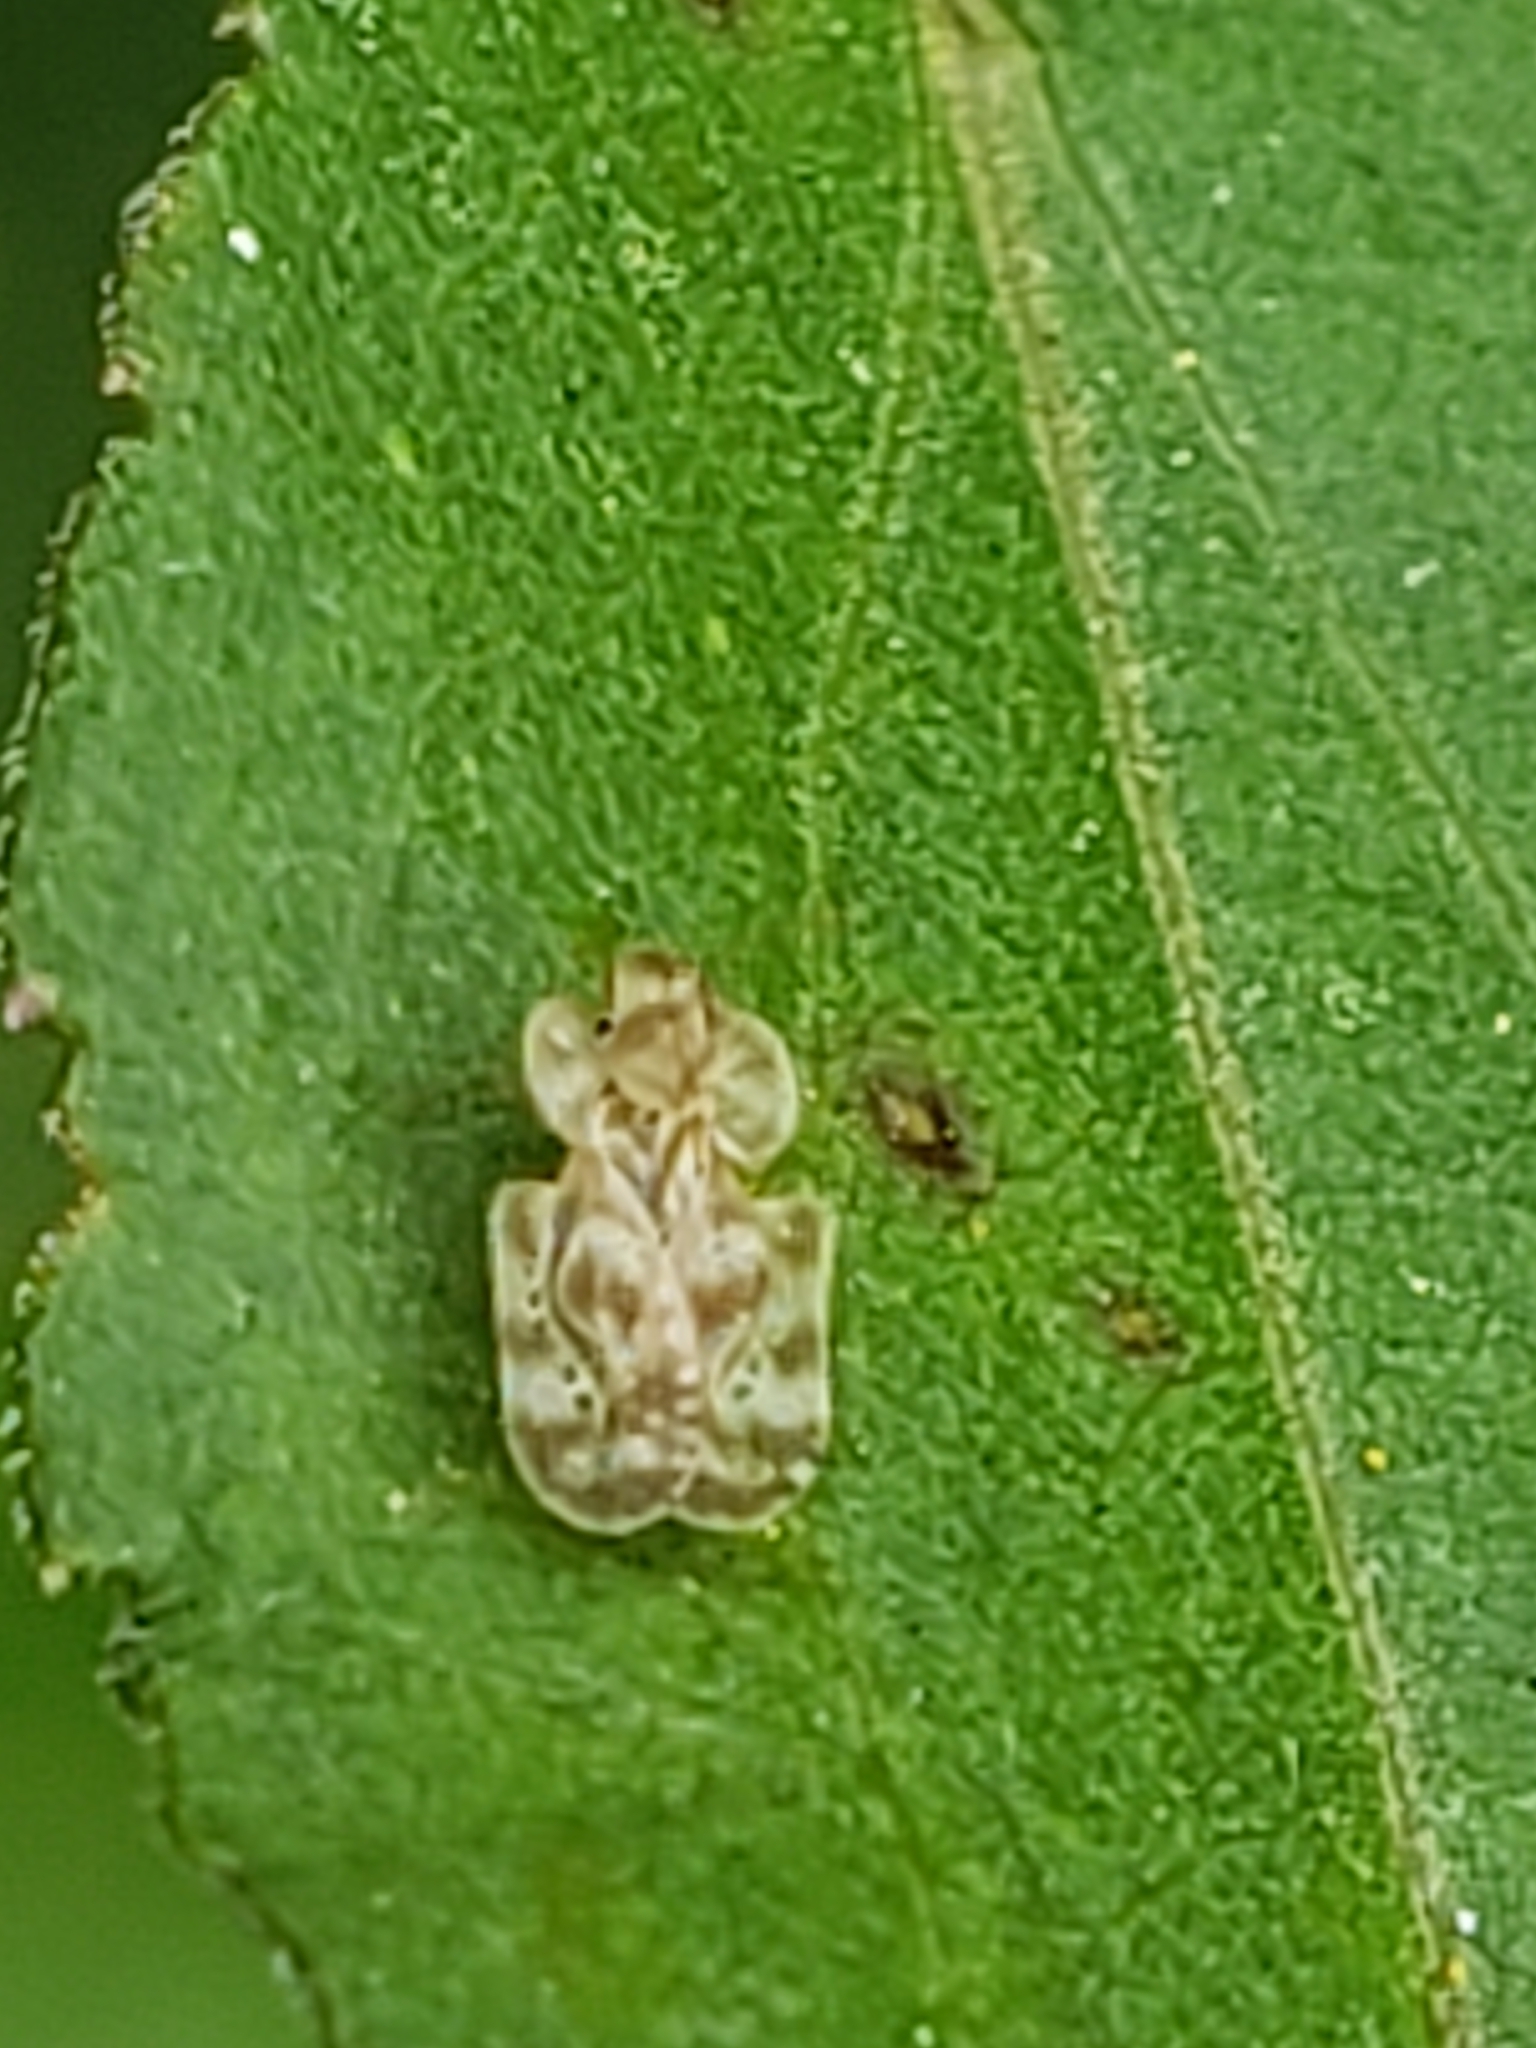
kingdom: Animalia
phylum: Arthropoda
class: Insecta
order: Hemiptera
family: Tingidae
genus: Corythucha
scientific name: Corythucha marmorata
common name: Chrysanthemum lace bug
